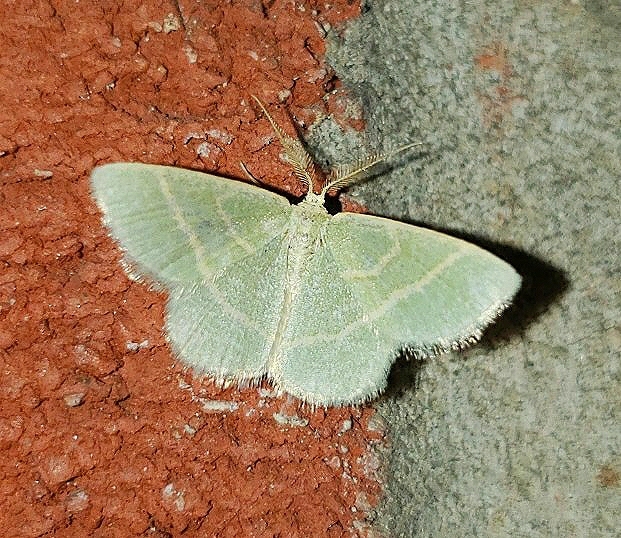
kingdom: Animalia
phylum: Arthropoda
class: Insecta
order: Lepidoptera
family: Geometridae
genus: Chlorochlamys
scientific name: Chlorochlamys chloroleucaria
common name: Blackberry looper
